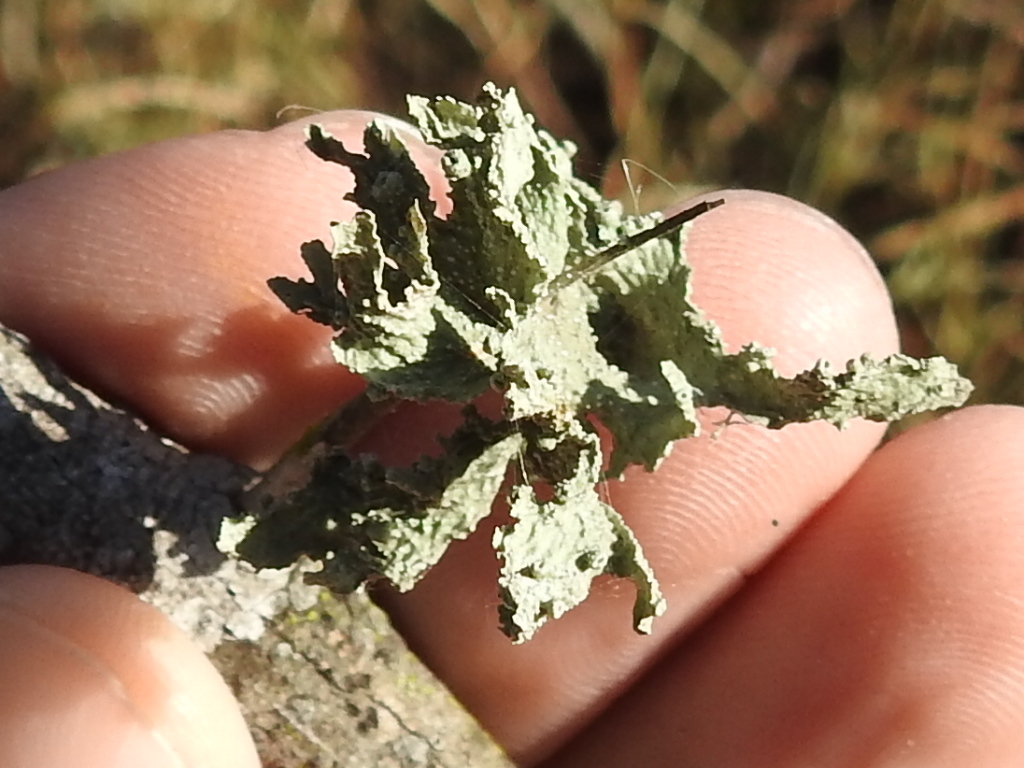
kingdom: Fungi
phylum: Ascomycota
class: Lecanoromycetes
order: Lecanorales
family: Ramalinaceae
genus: Ramalina
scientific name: Ramalina complanata
